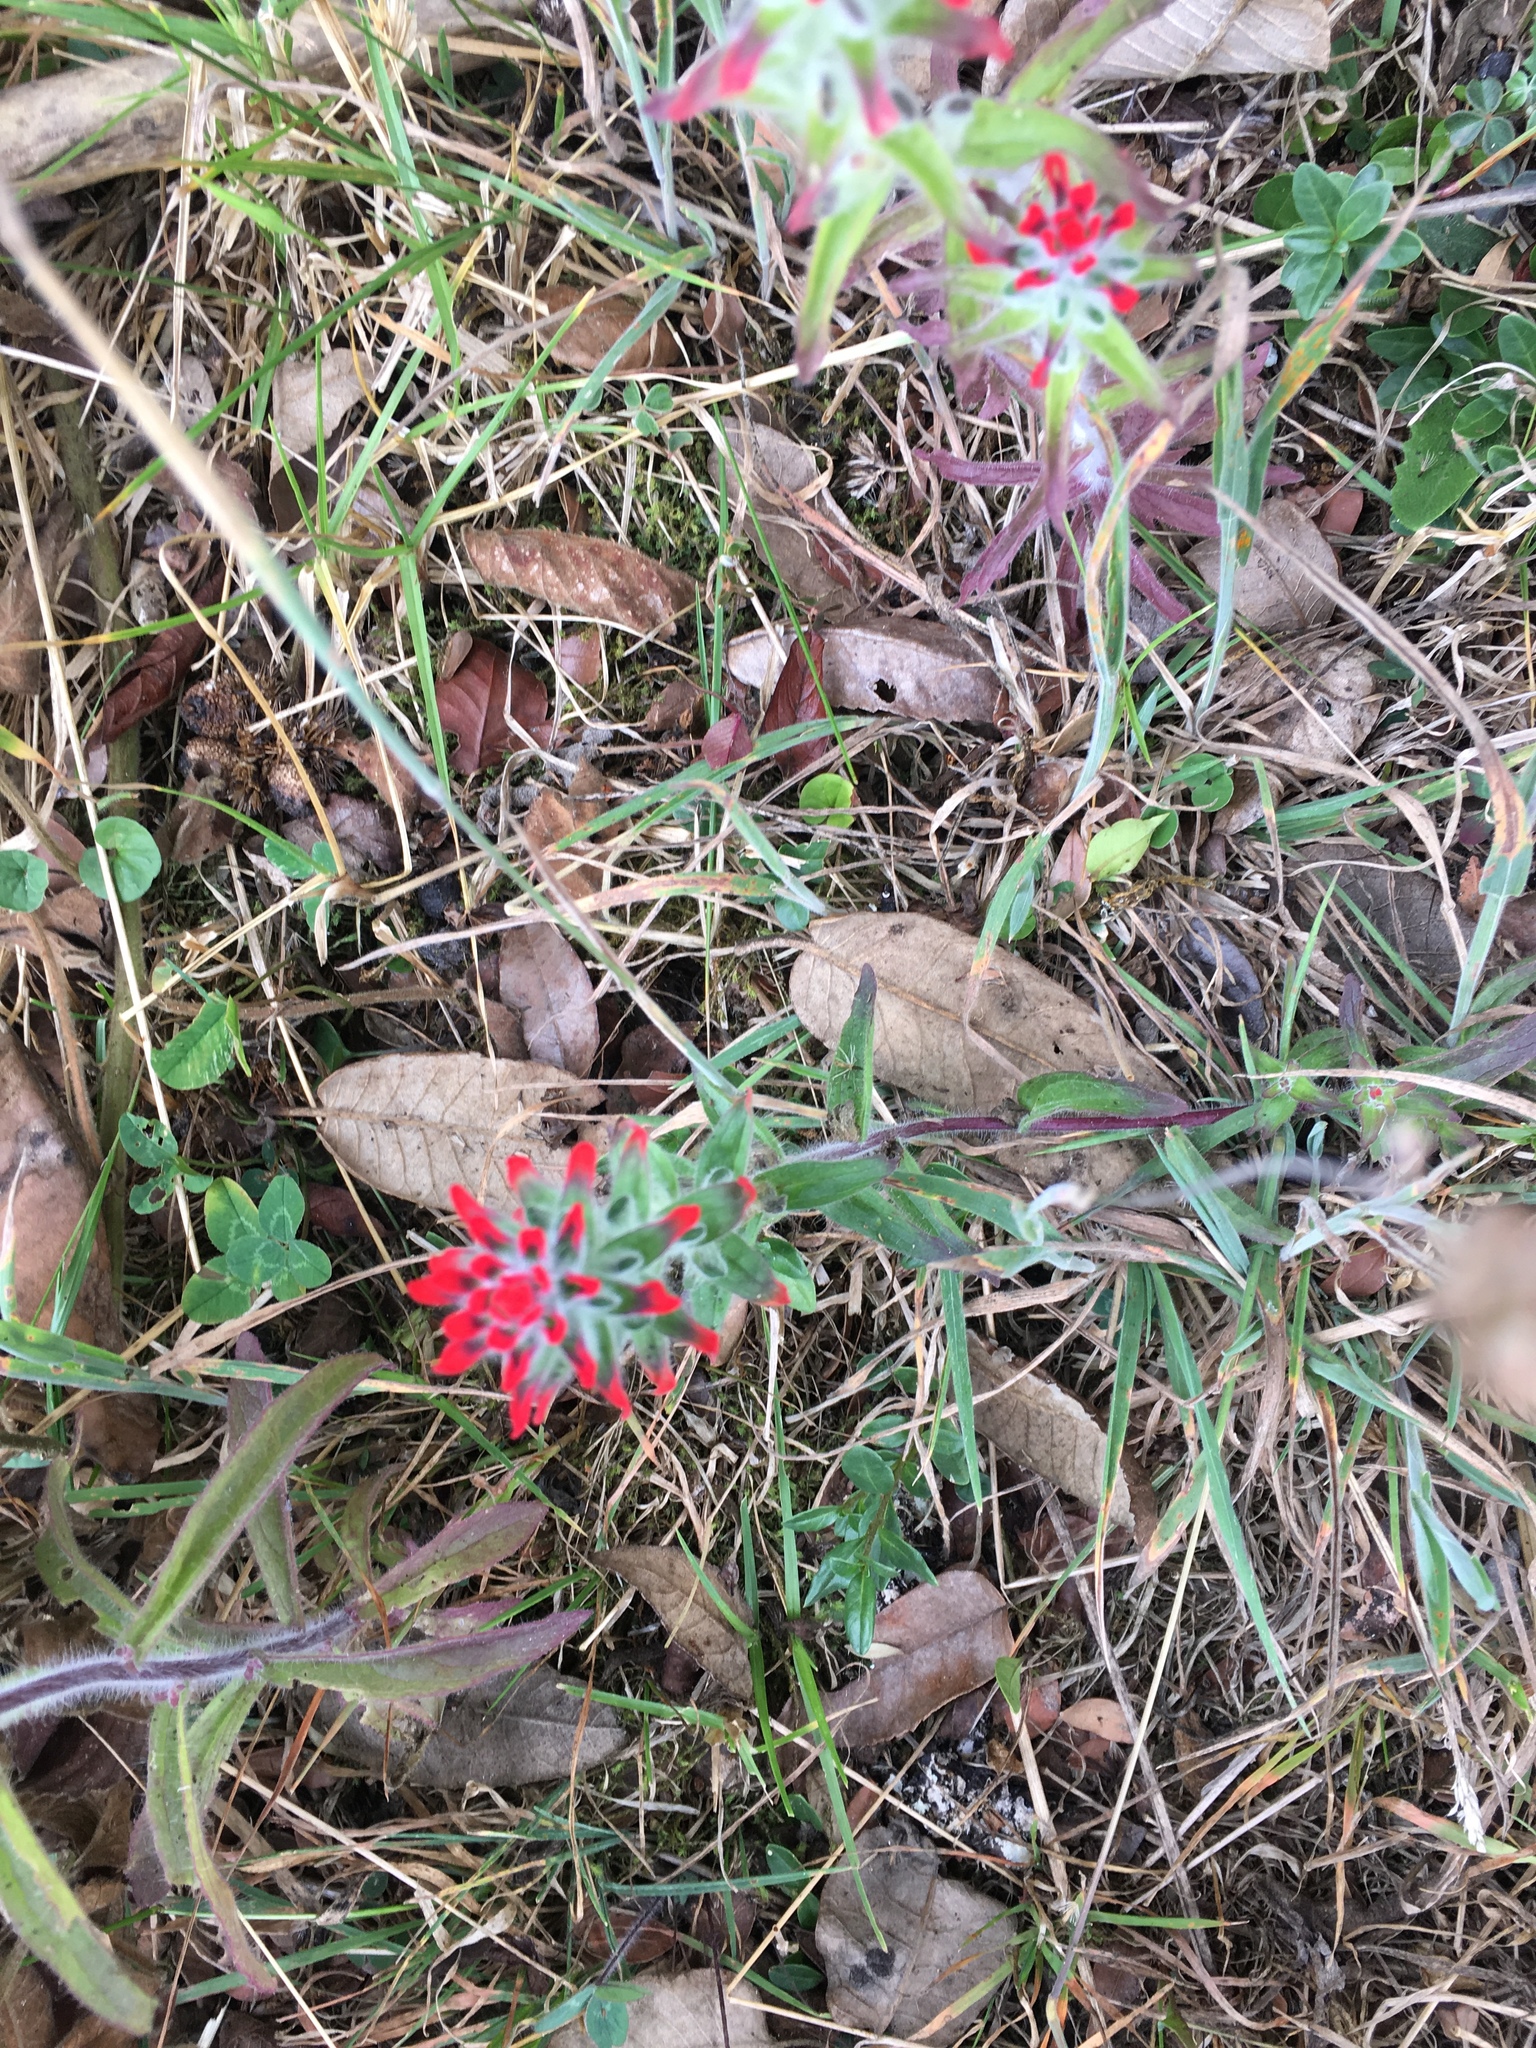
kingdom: Plantae
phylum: Tracheophyta
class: Magnoliopsida
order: Lamiales
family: Orobanchaceae
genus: Castilleja
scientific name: Castilleja arvensis
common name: Indian paintbrush
